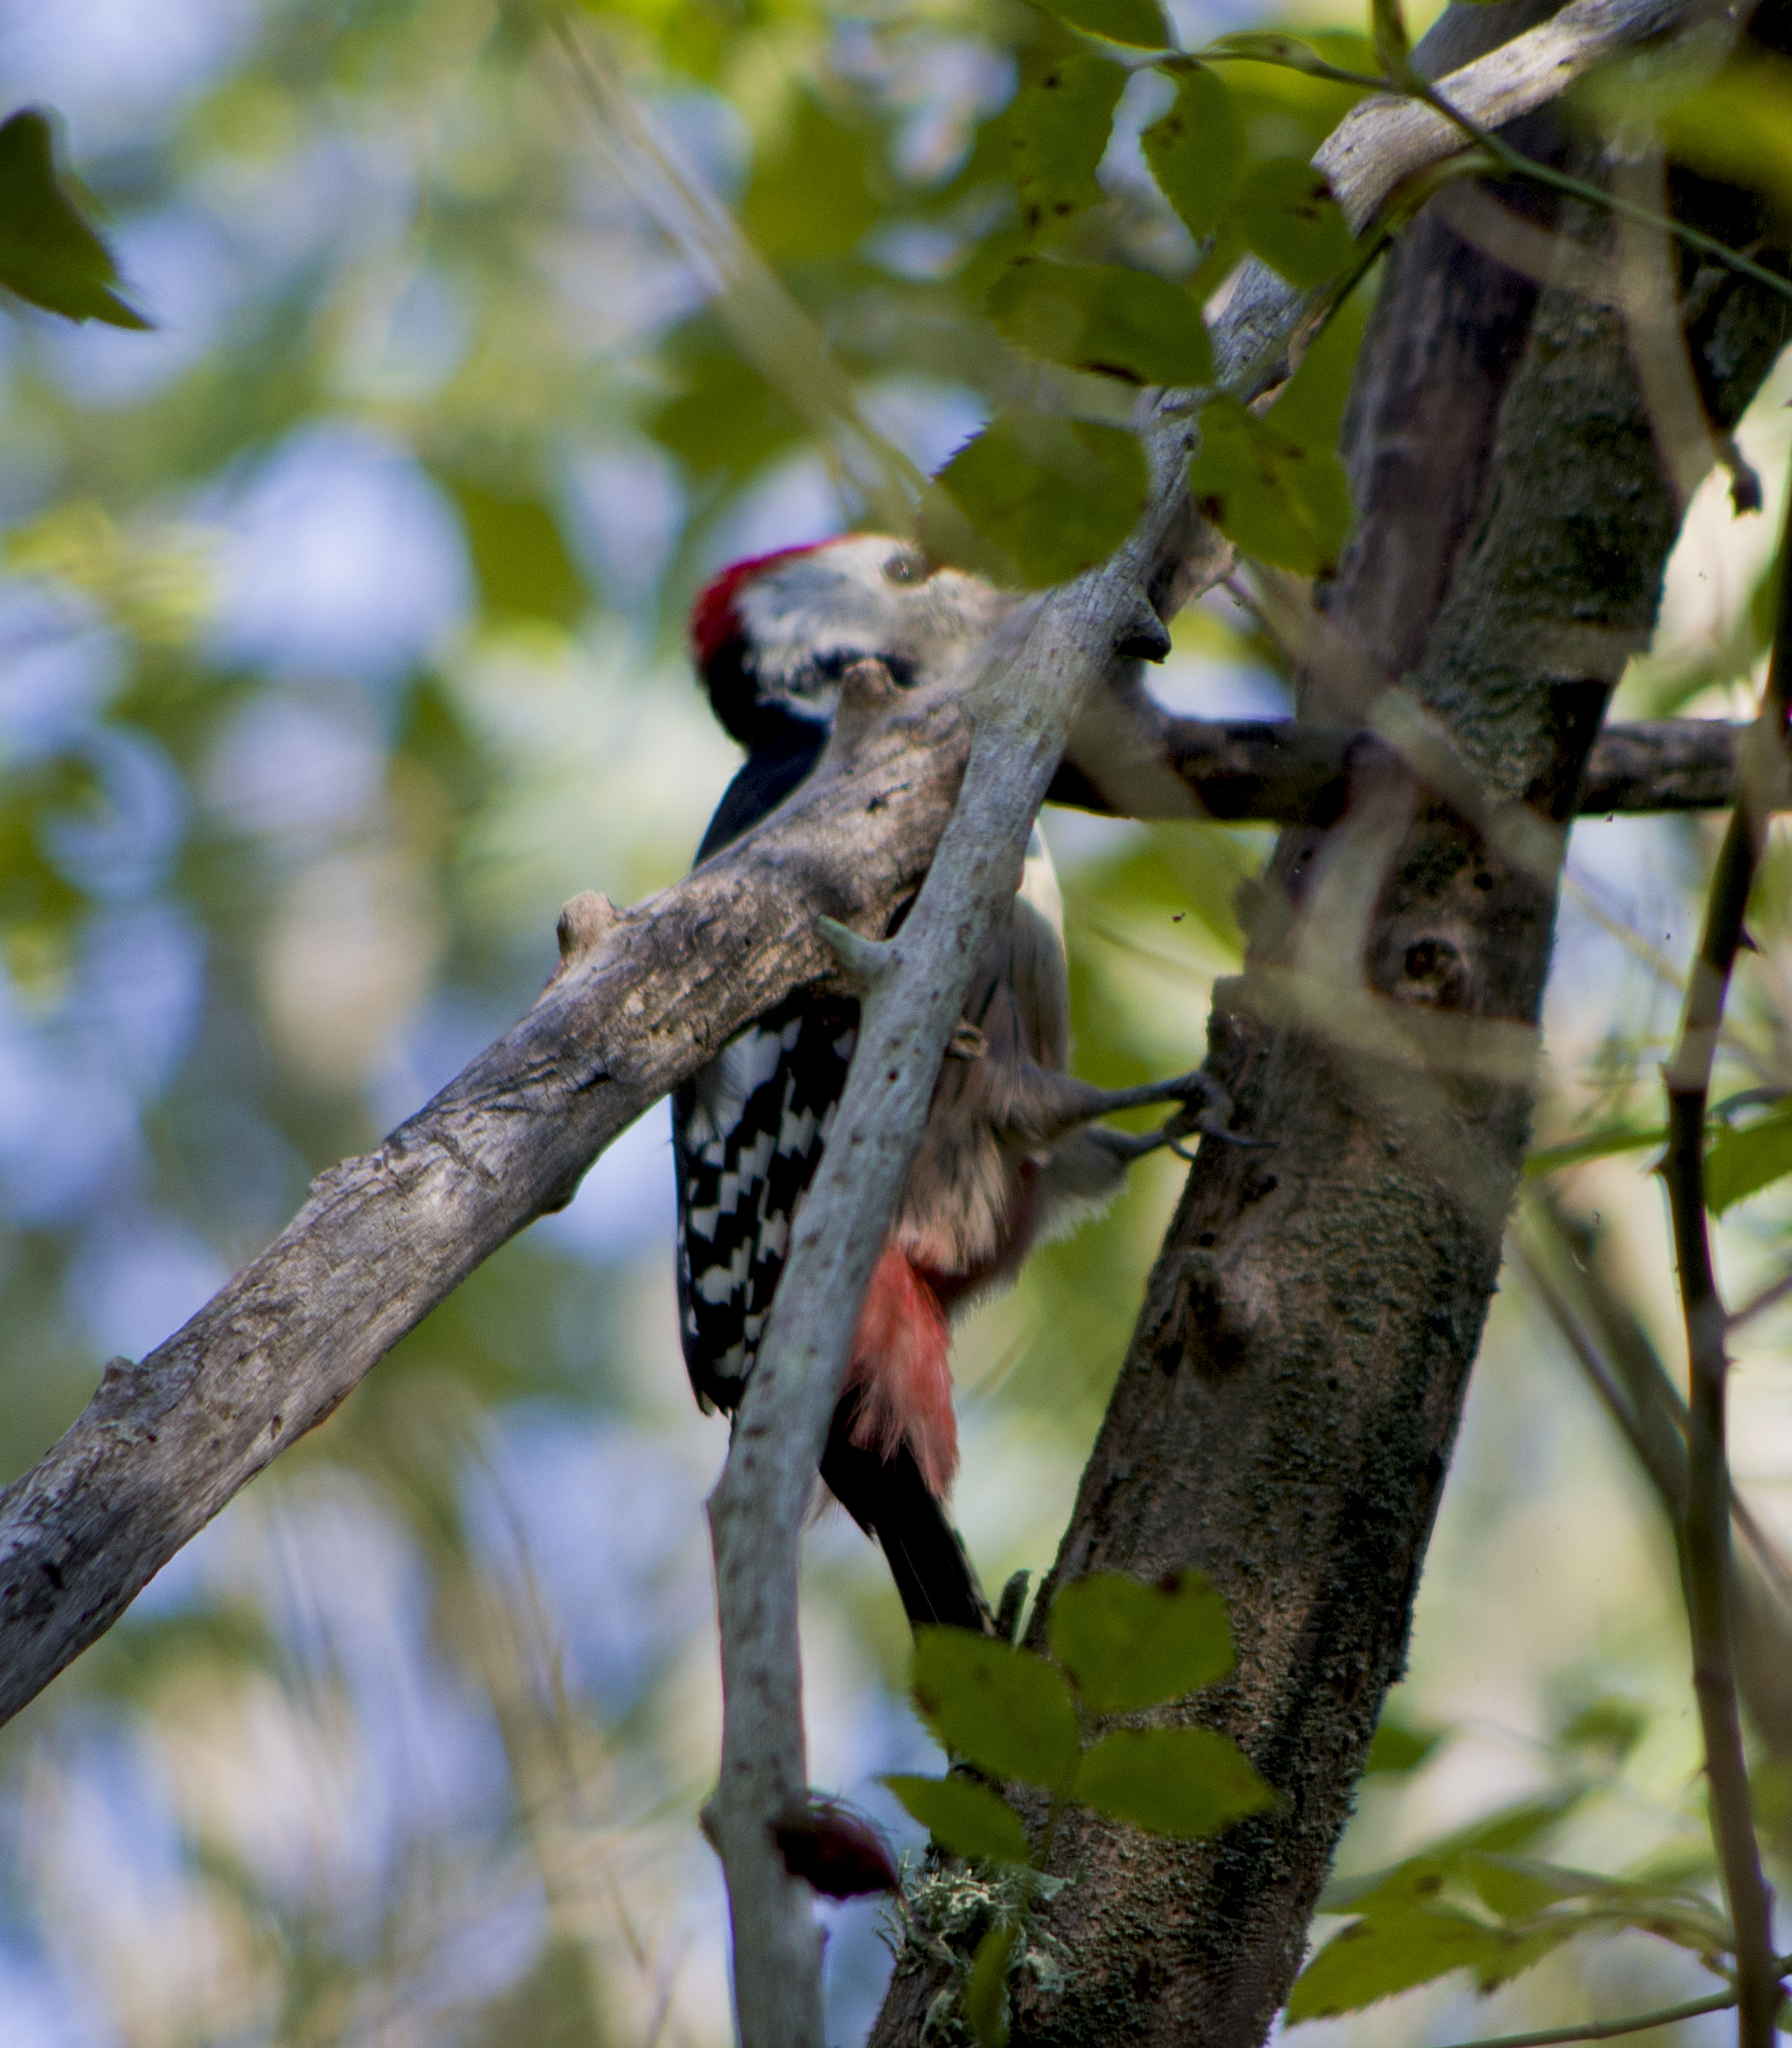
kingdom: Animalia
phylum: Chordata
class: Aves
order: Piciformes
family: Picidae
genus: Dendrocopos
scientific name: Dendrocopos leucotos
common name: White-backed woodpecker
